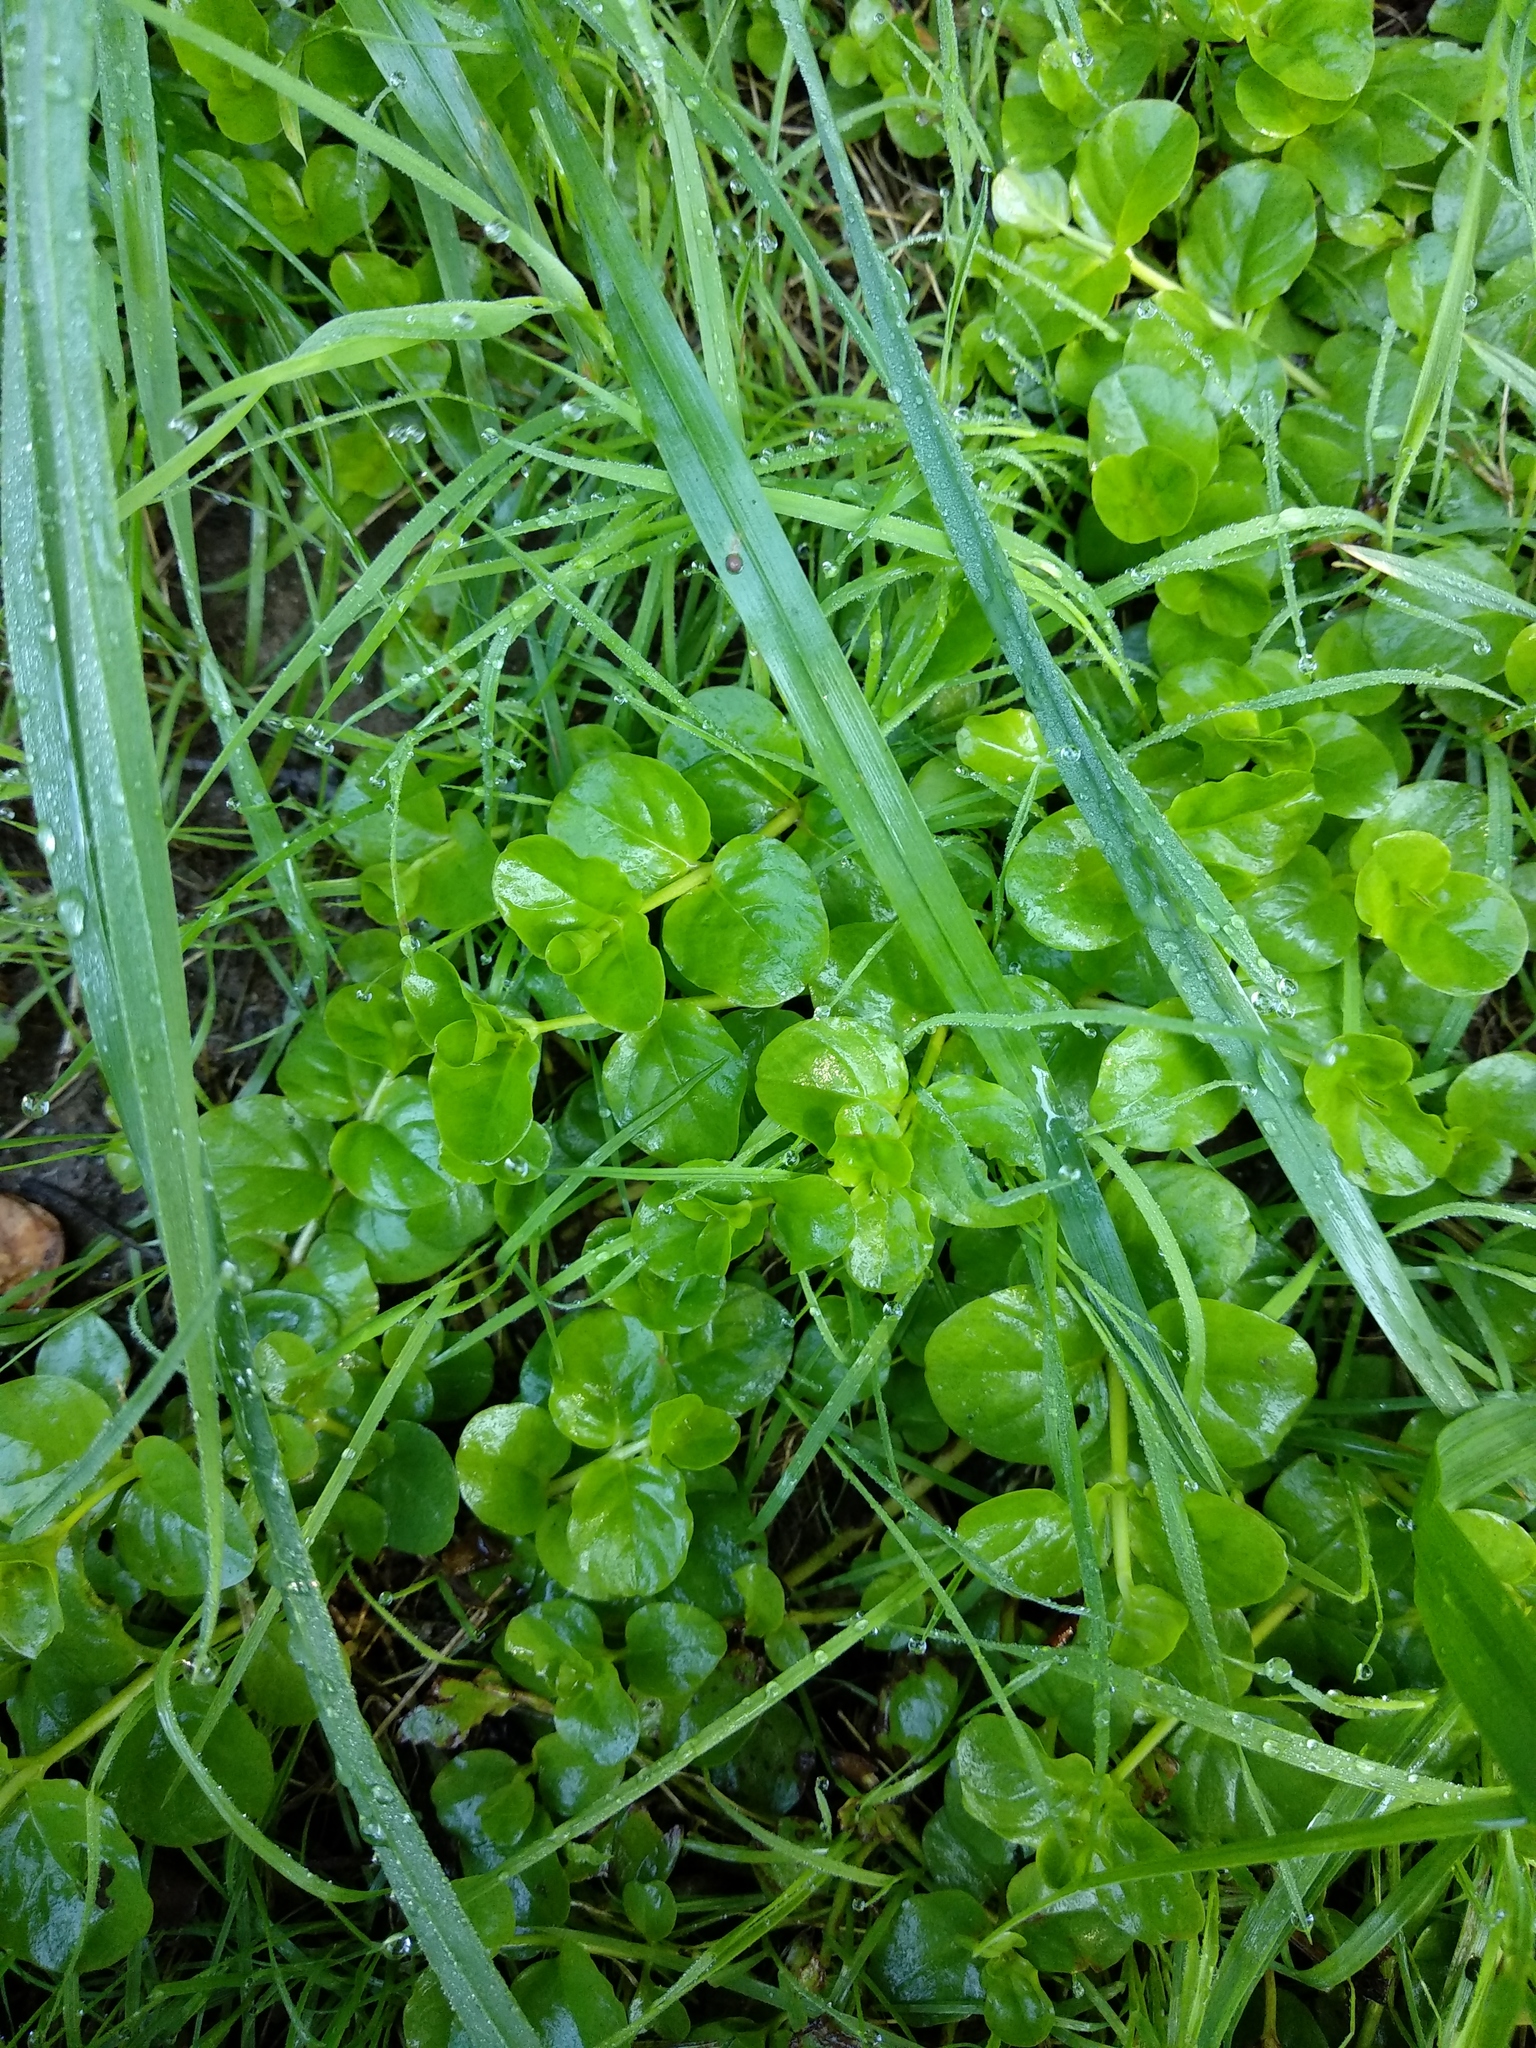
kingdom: Plantae
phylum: Tracheophyta
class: Magnoliopsida
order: Ericales
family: Primulaceae
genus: Lysimachia
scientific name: Lysimachia nummularia
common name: Moneywort
